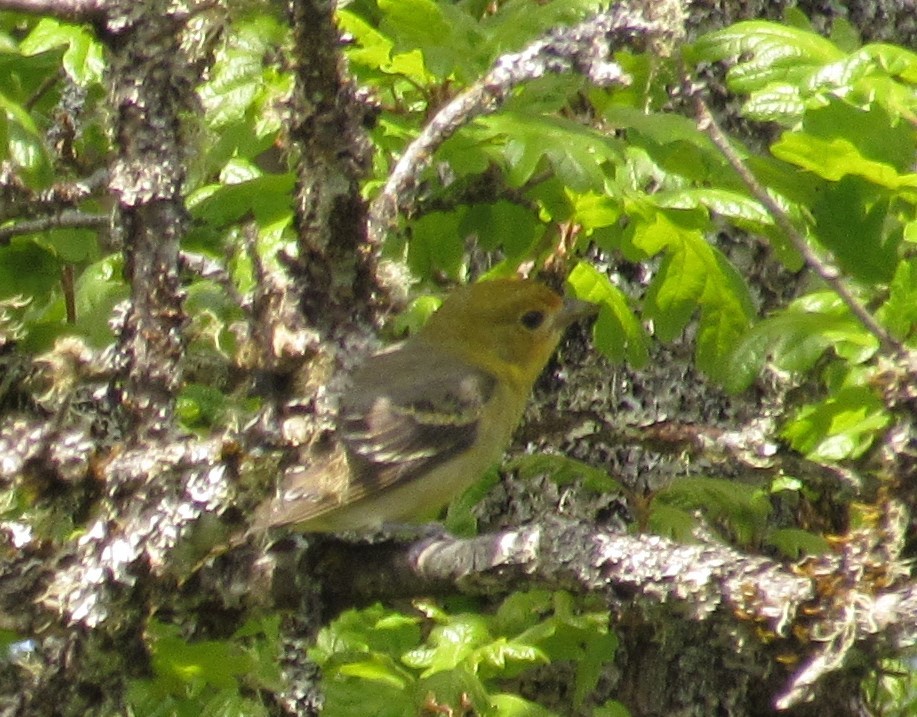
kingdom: Animalia
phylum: Chordata
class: Aves
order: Passeriformes
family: Cardinalidae
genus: Piranga
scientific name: Piranga ludoviciana
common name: Western tanager
